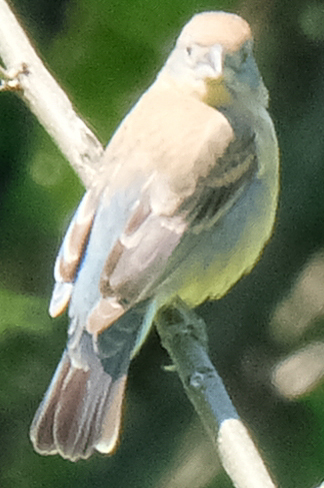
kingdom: Animalia
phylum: Chordata
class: Aves
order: Passeriformes
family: Cardinalidae
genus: Passerina
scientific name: Passerina caerulea
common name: Blue grosbeak
